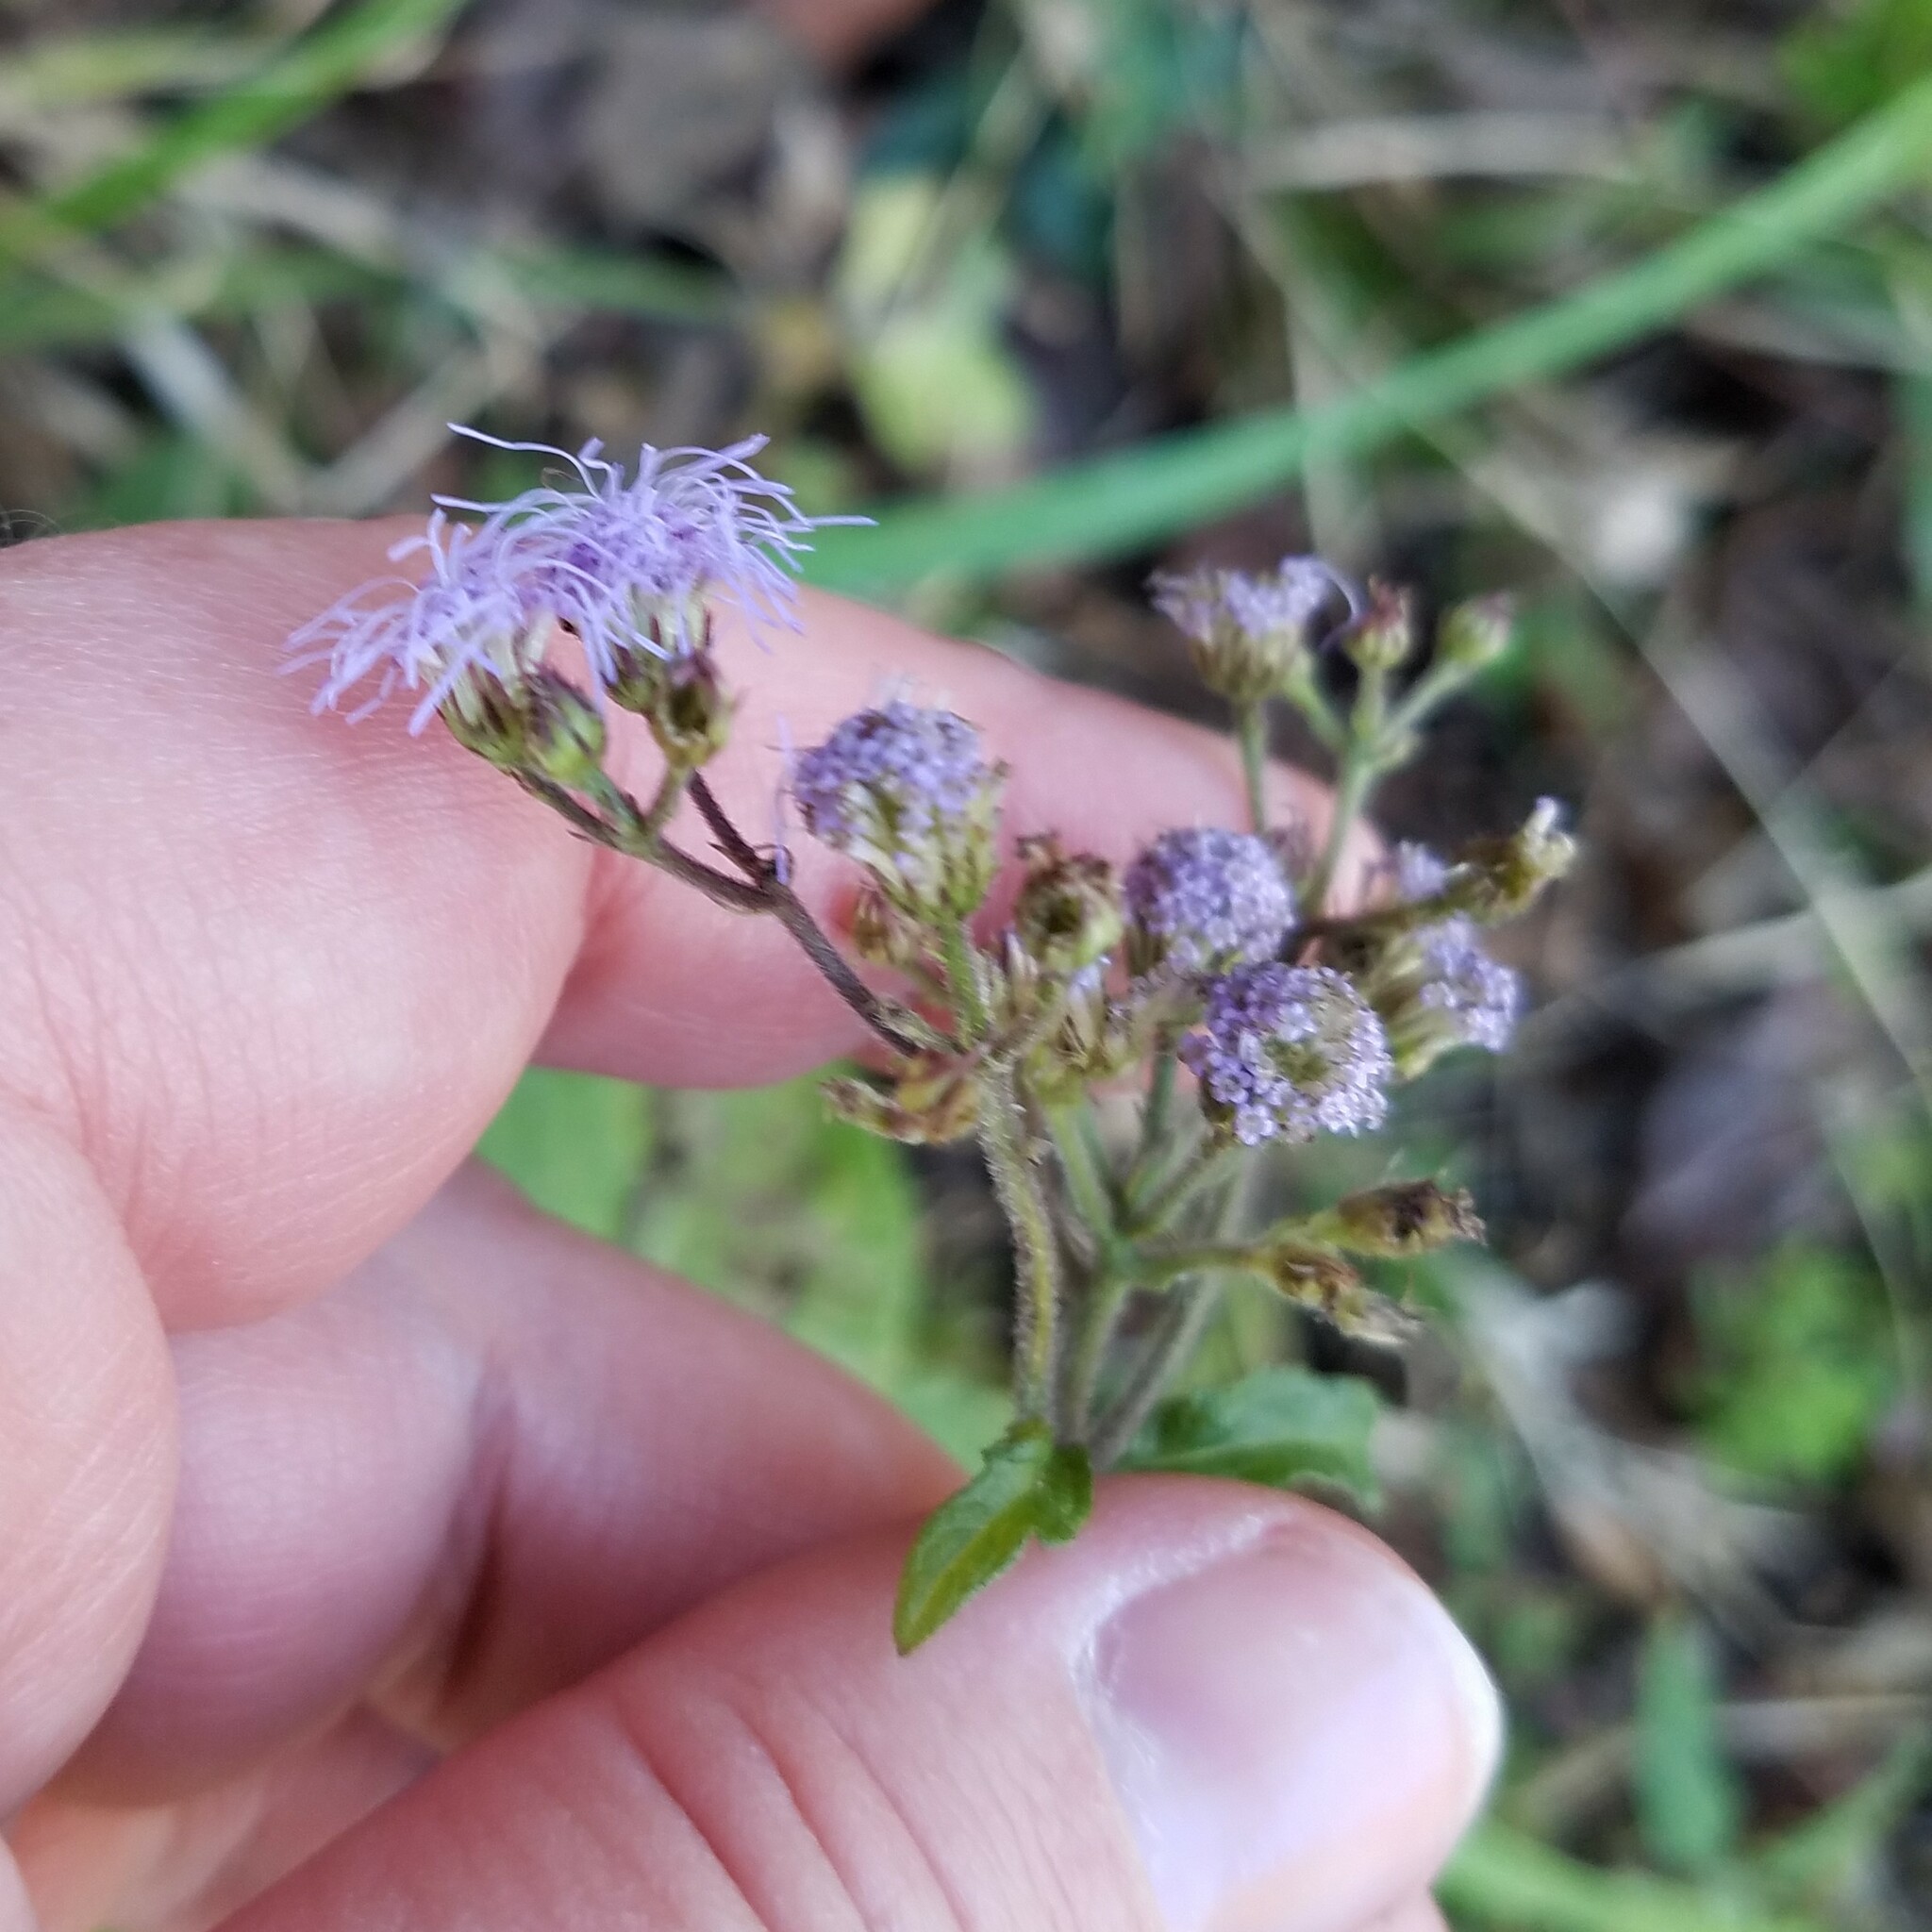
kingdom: Plantae
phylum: Tracheophyta
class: Magnoliopsida
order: Asterales
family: Asteraceae
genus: Conoclinium
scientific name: Conoclinium coelestinum
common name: Blue mistflower
